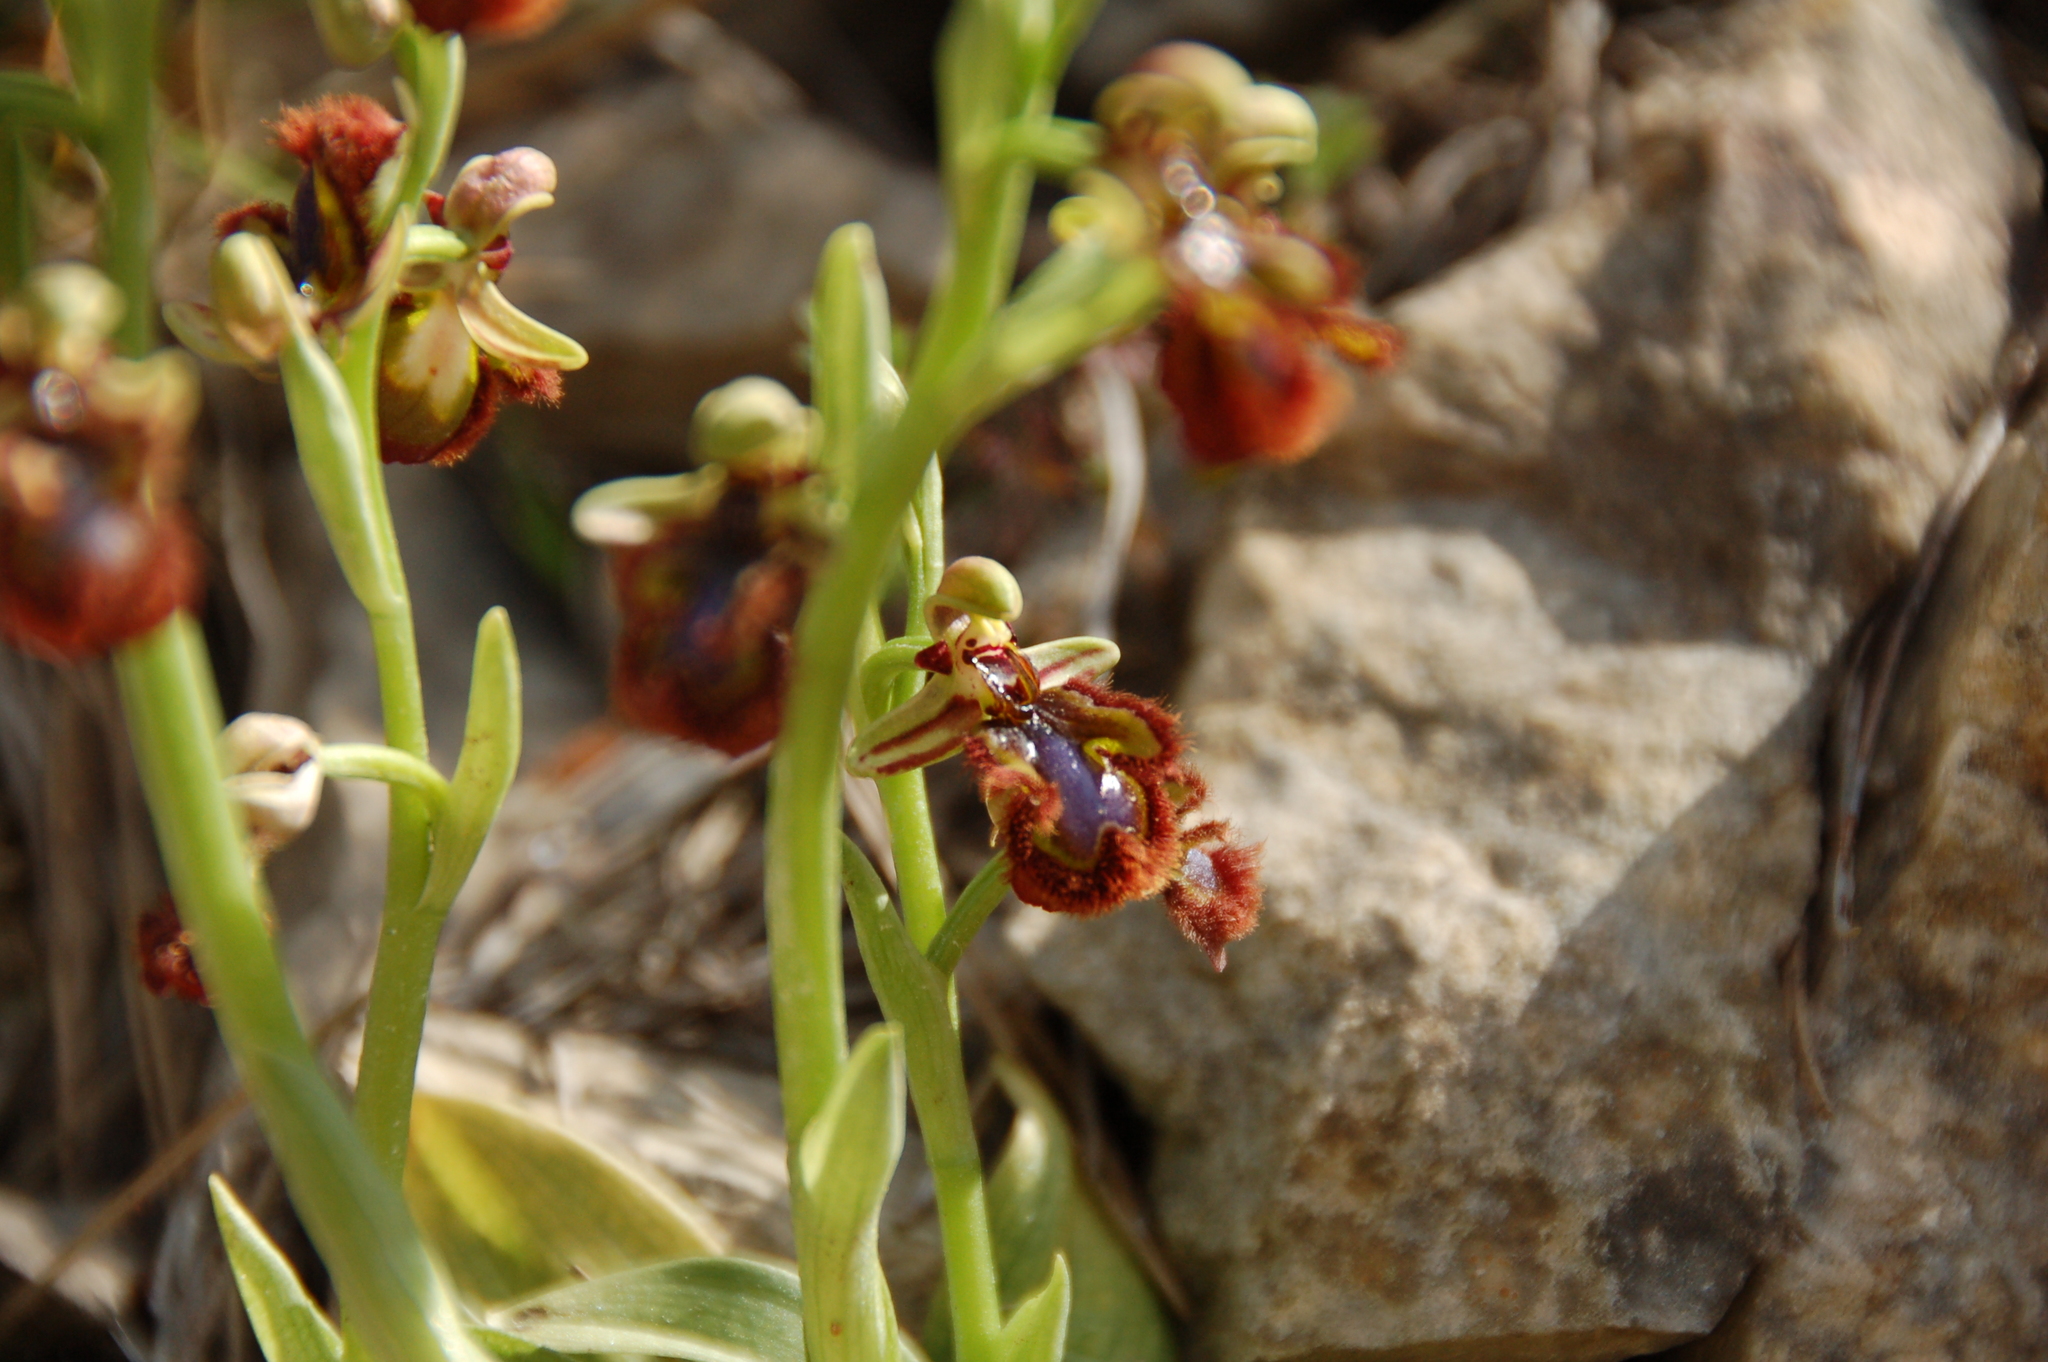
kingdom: Plantae
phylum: Tracheophyta
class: Liliopsida
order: Asparagales
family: Orchidaceae
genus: Ophrys
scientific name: Ophrys speculum
